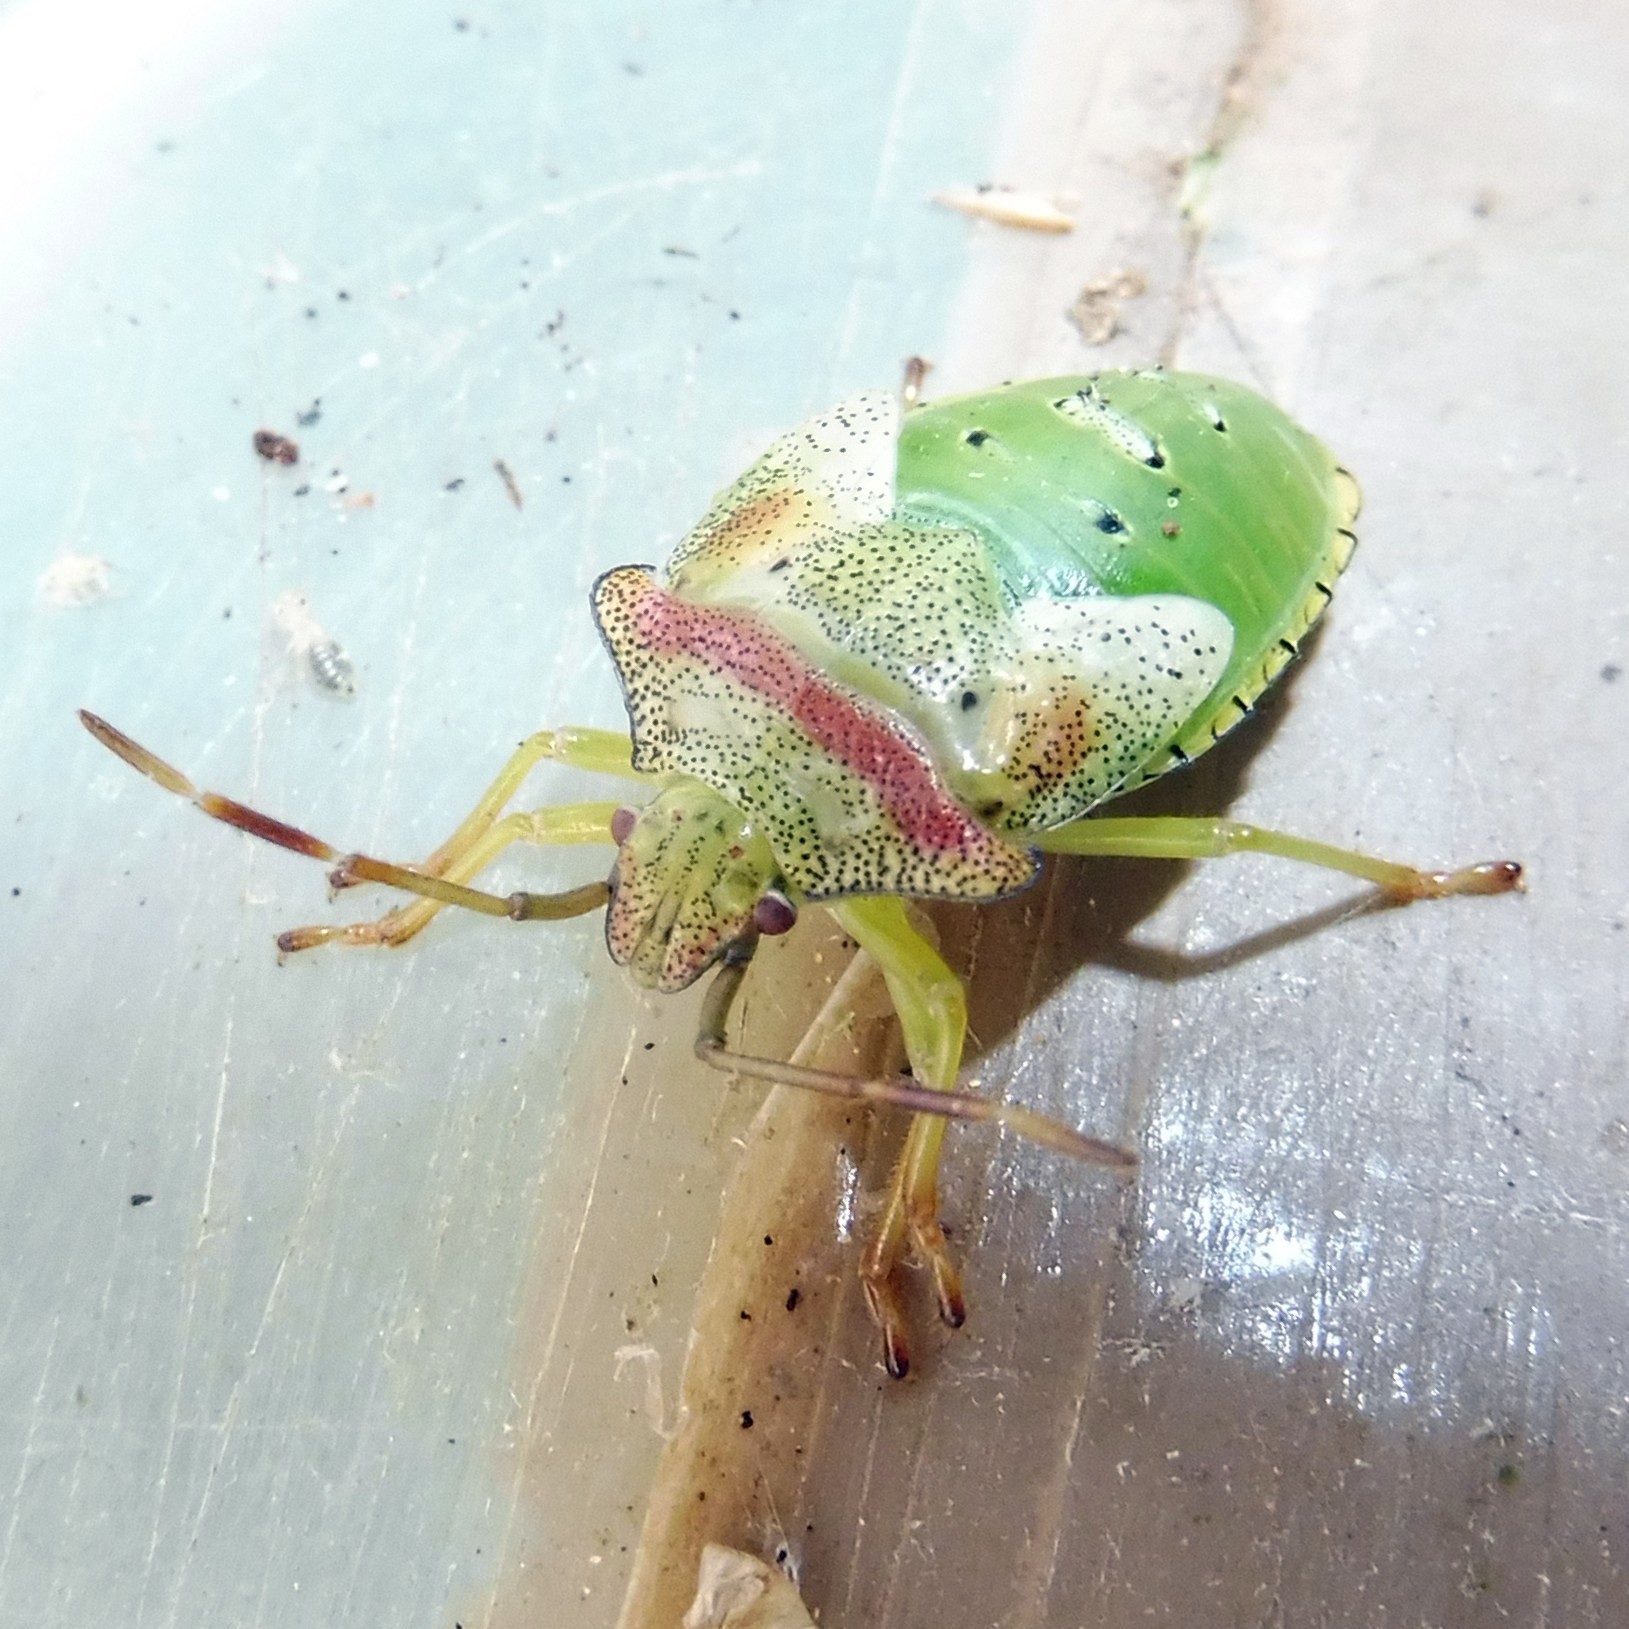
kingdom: Animalia
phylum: Arthropoda
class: Insecta
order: Hemiptera
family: Acanthosomatidae
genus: Acanthosoma
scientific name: Acanthosoma haemorrhoidale
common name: Hawthorn shieldbug
